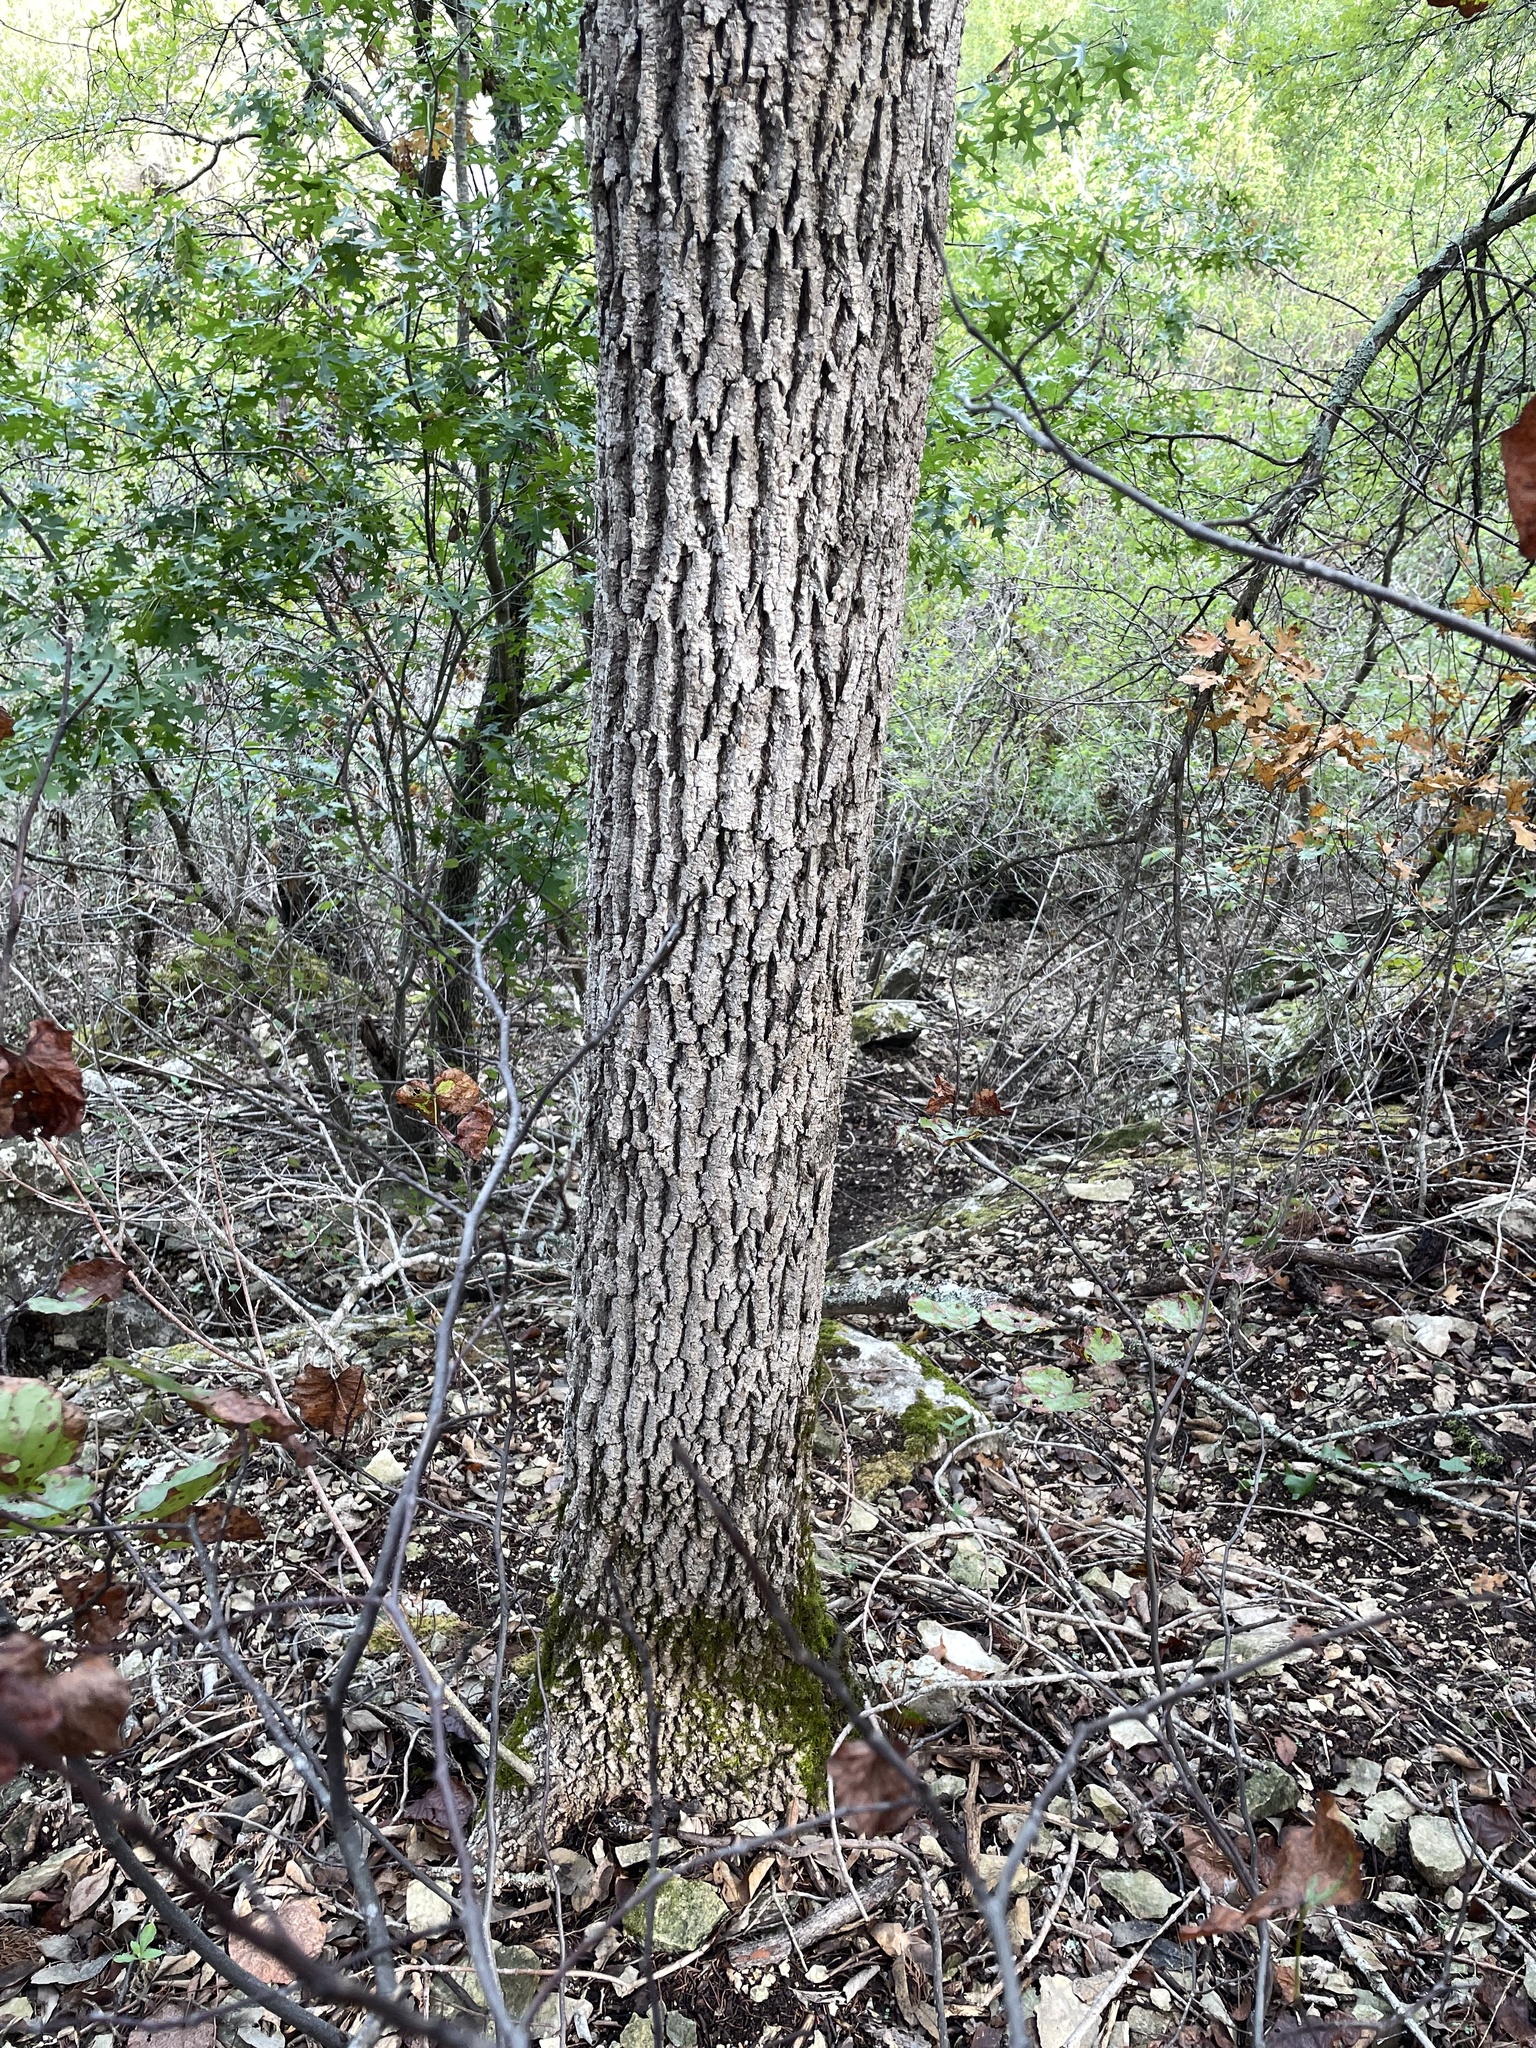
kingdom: Plantae
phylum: Tracheophyta
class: Magnoliopsida
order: Lamiales
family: Oleaceae
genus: Fraxinus
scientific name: Fraxinus albicans
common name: Texas ash
